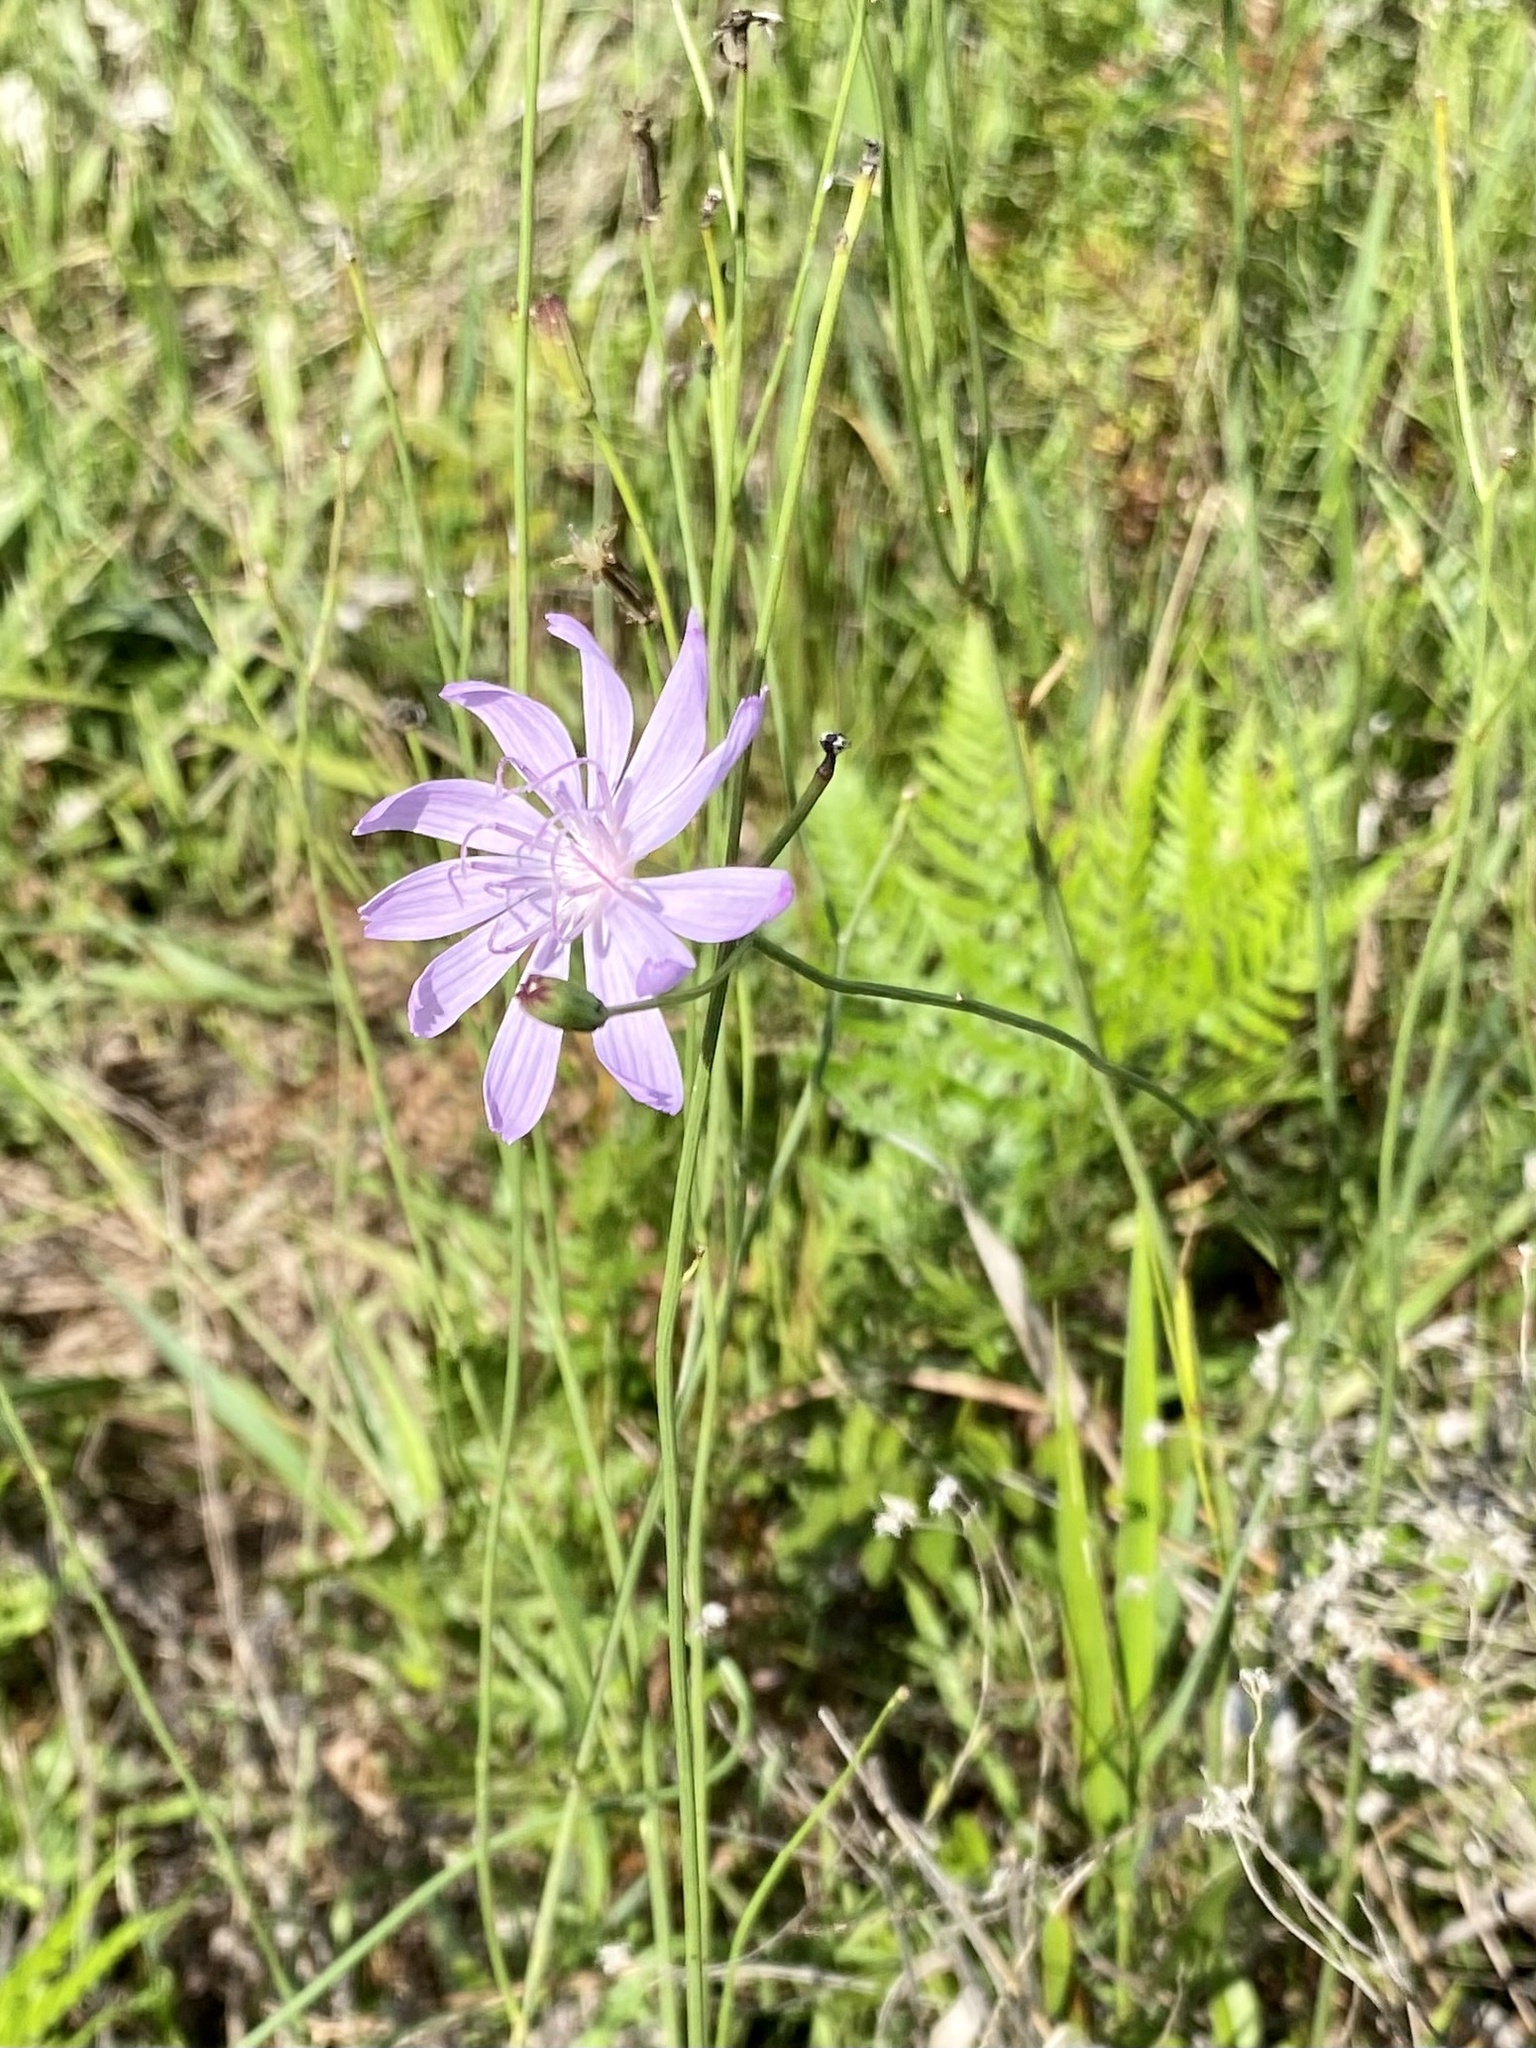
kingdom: Plantae
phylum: Tracheophyta
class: Magnoliopsida
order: Asterales
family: Asteraceae
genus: Lygodesmia
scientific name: Lygodesmia aphylla
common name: Rose-rush
